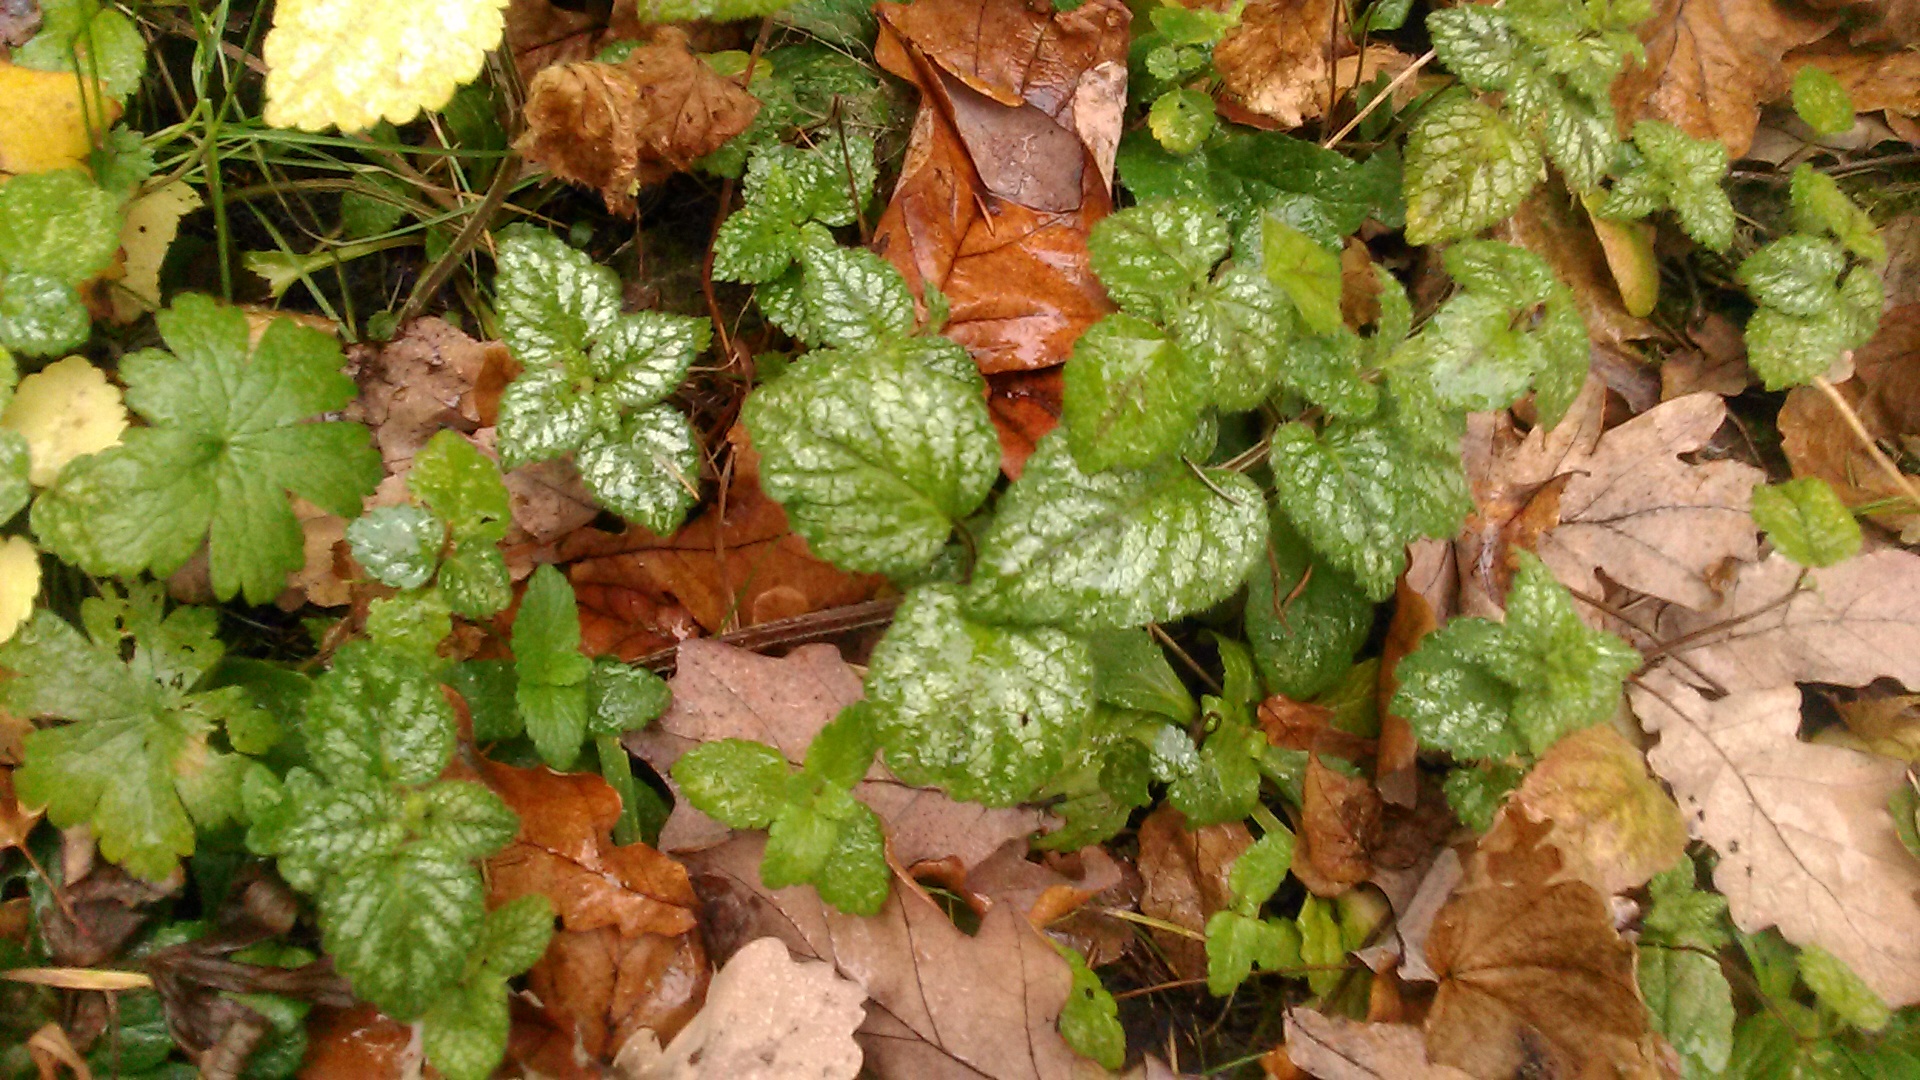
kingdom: Plantae
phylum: Tracheophyta
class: Magnoliopsida
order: Lamiales
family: Lamiaceae
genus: Lamium
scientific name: Lamium galeobdolon
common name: Yellow archangel
